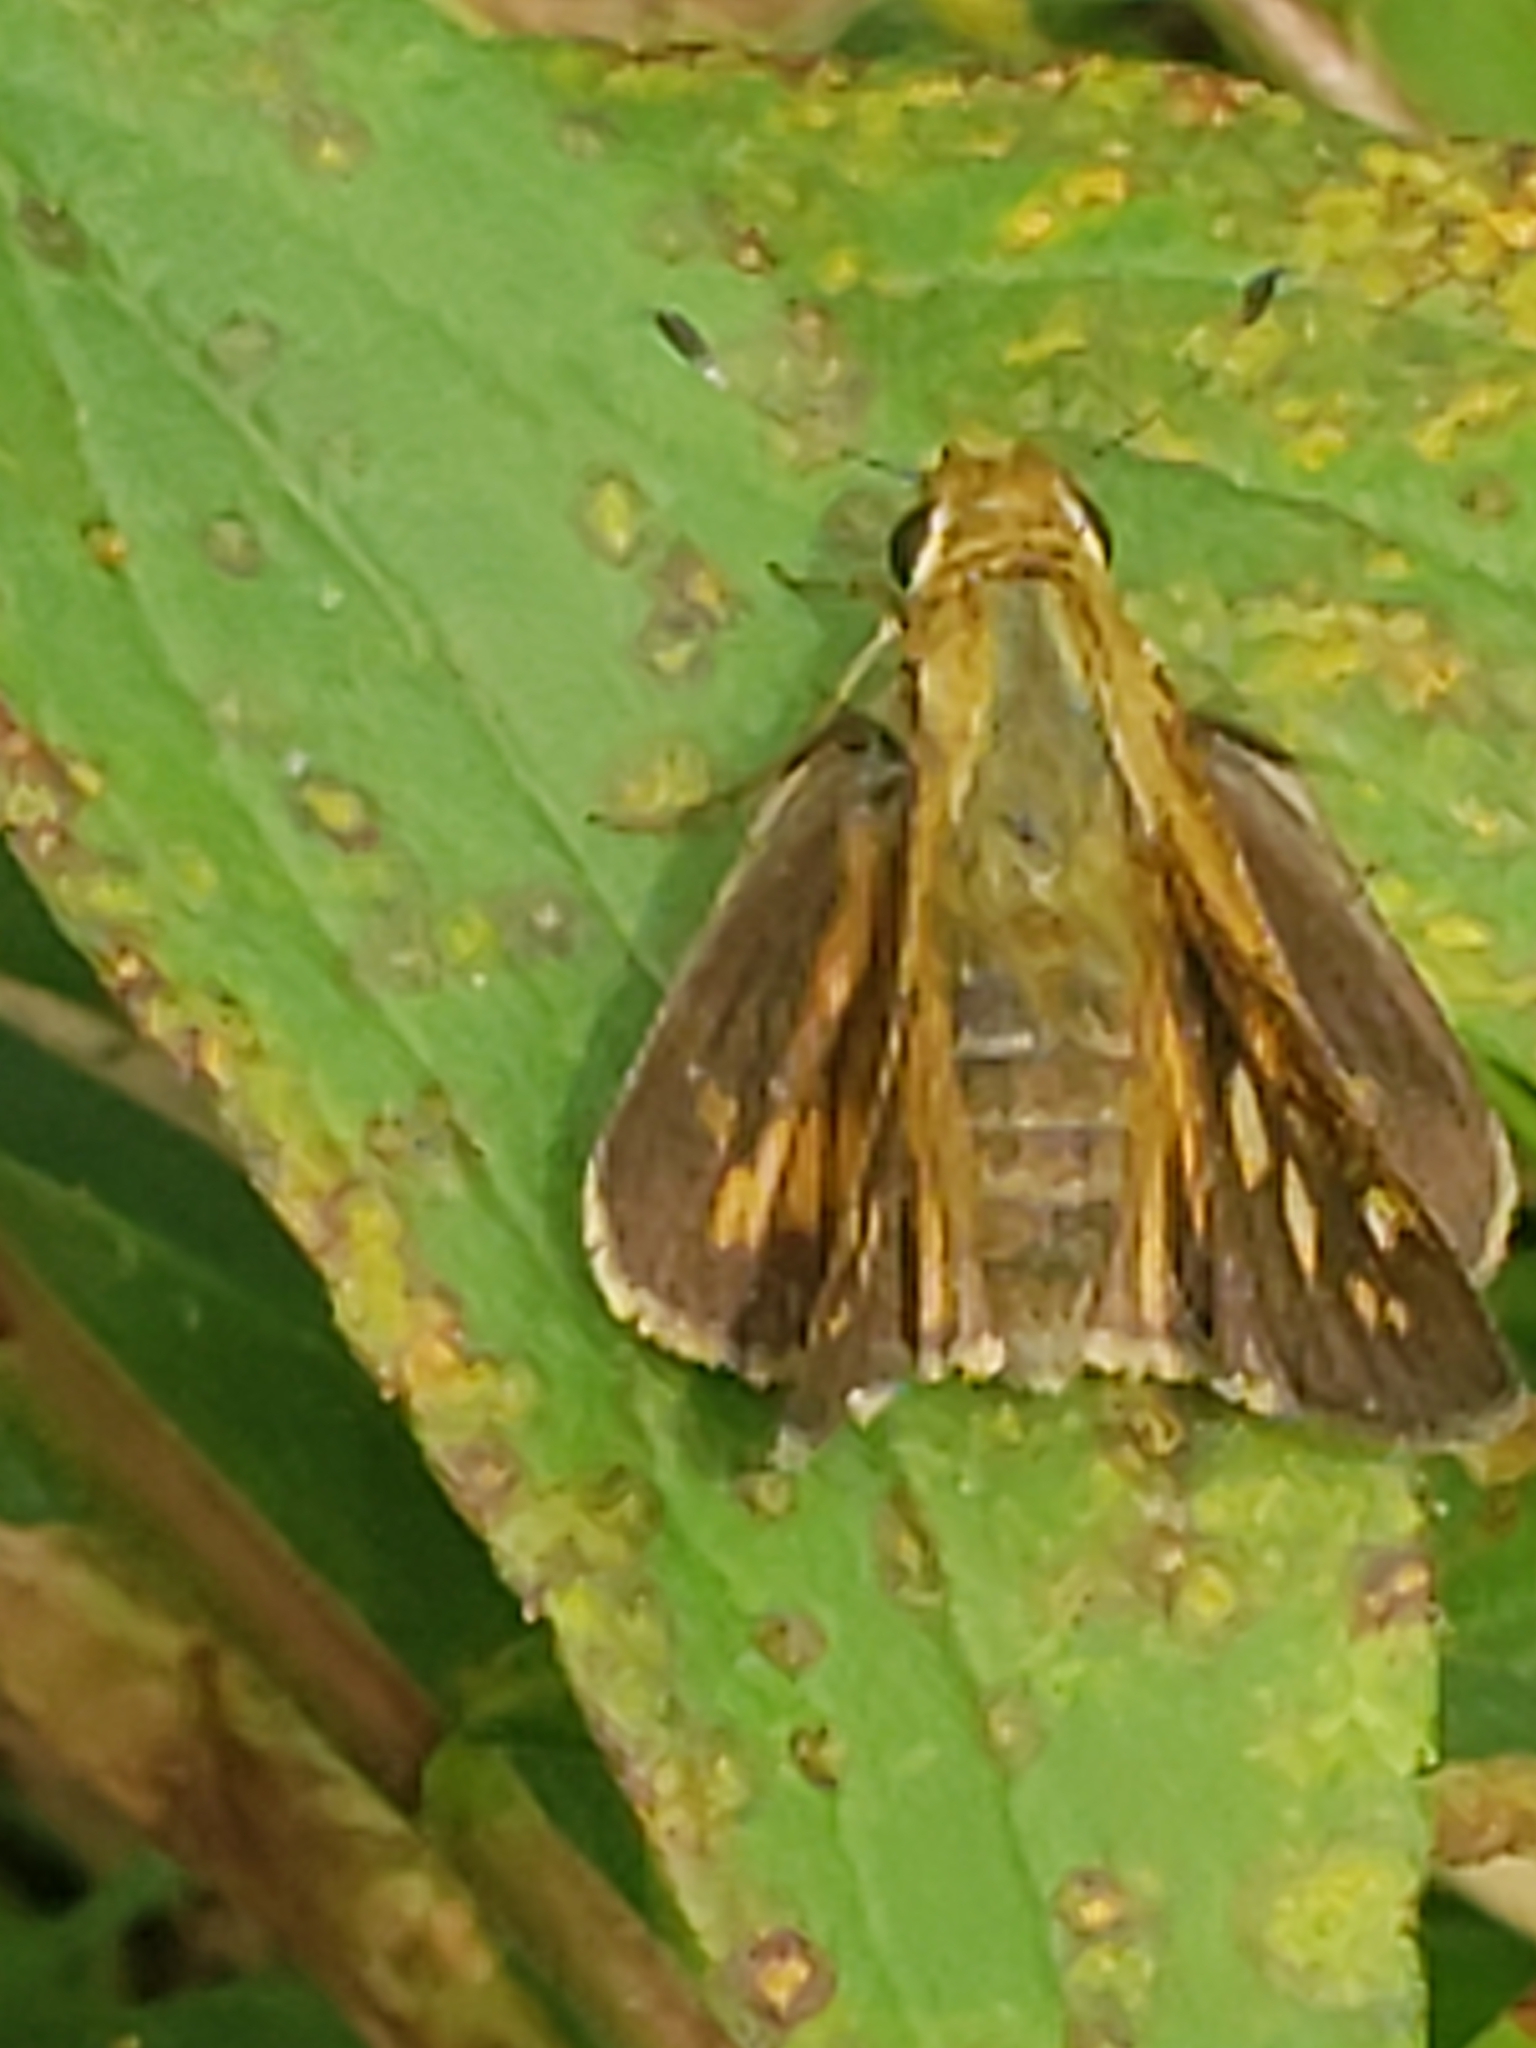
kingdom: Animalia
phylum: Arthropoda
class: Insecta
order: Lepidoptera
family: Hesperiidae
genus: Atalopedes
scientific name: Atalopedes
